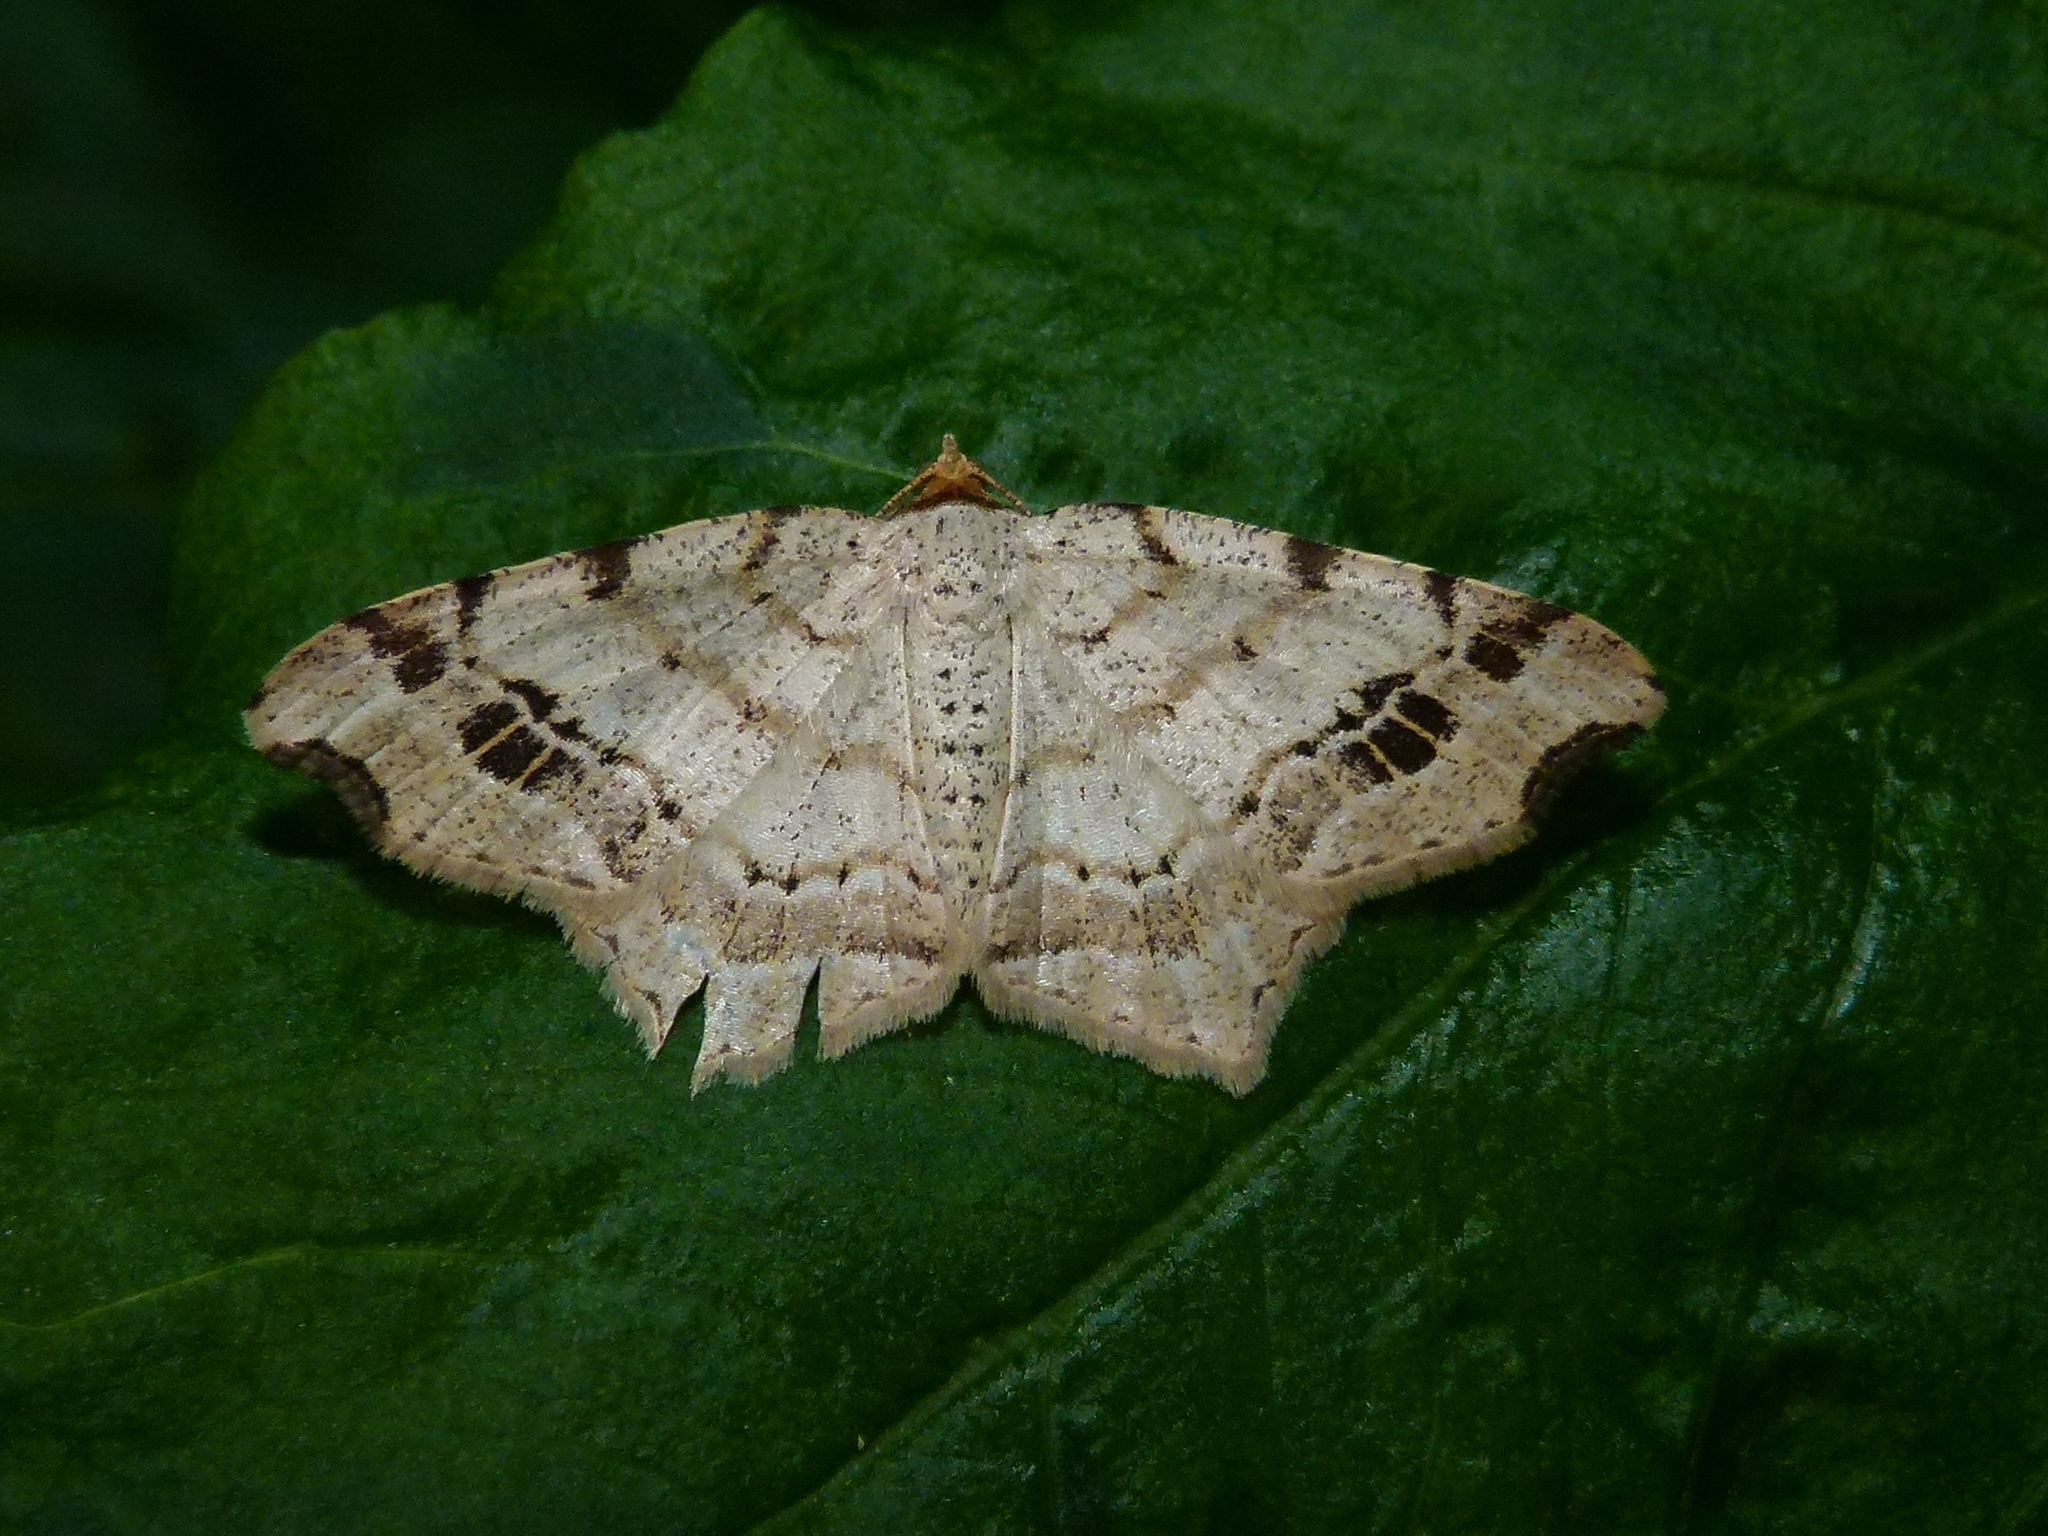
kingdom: Animalia
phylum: Arthropoda
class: Insecta
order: Lepidoptera
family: Geometridae
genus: Macaria
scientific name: Macaria aemulataria
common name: Common angle
